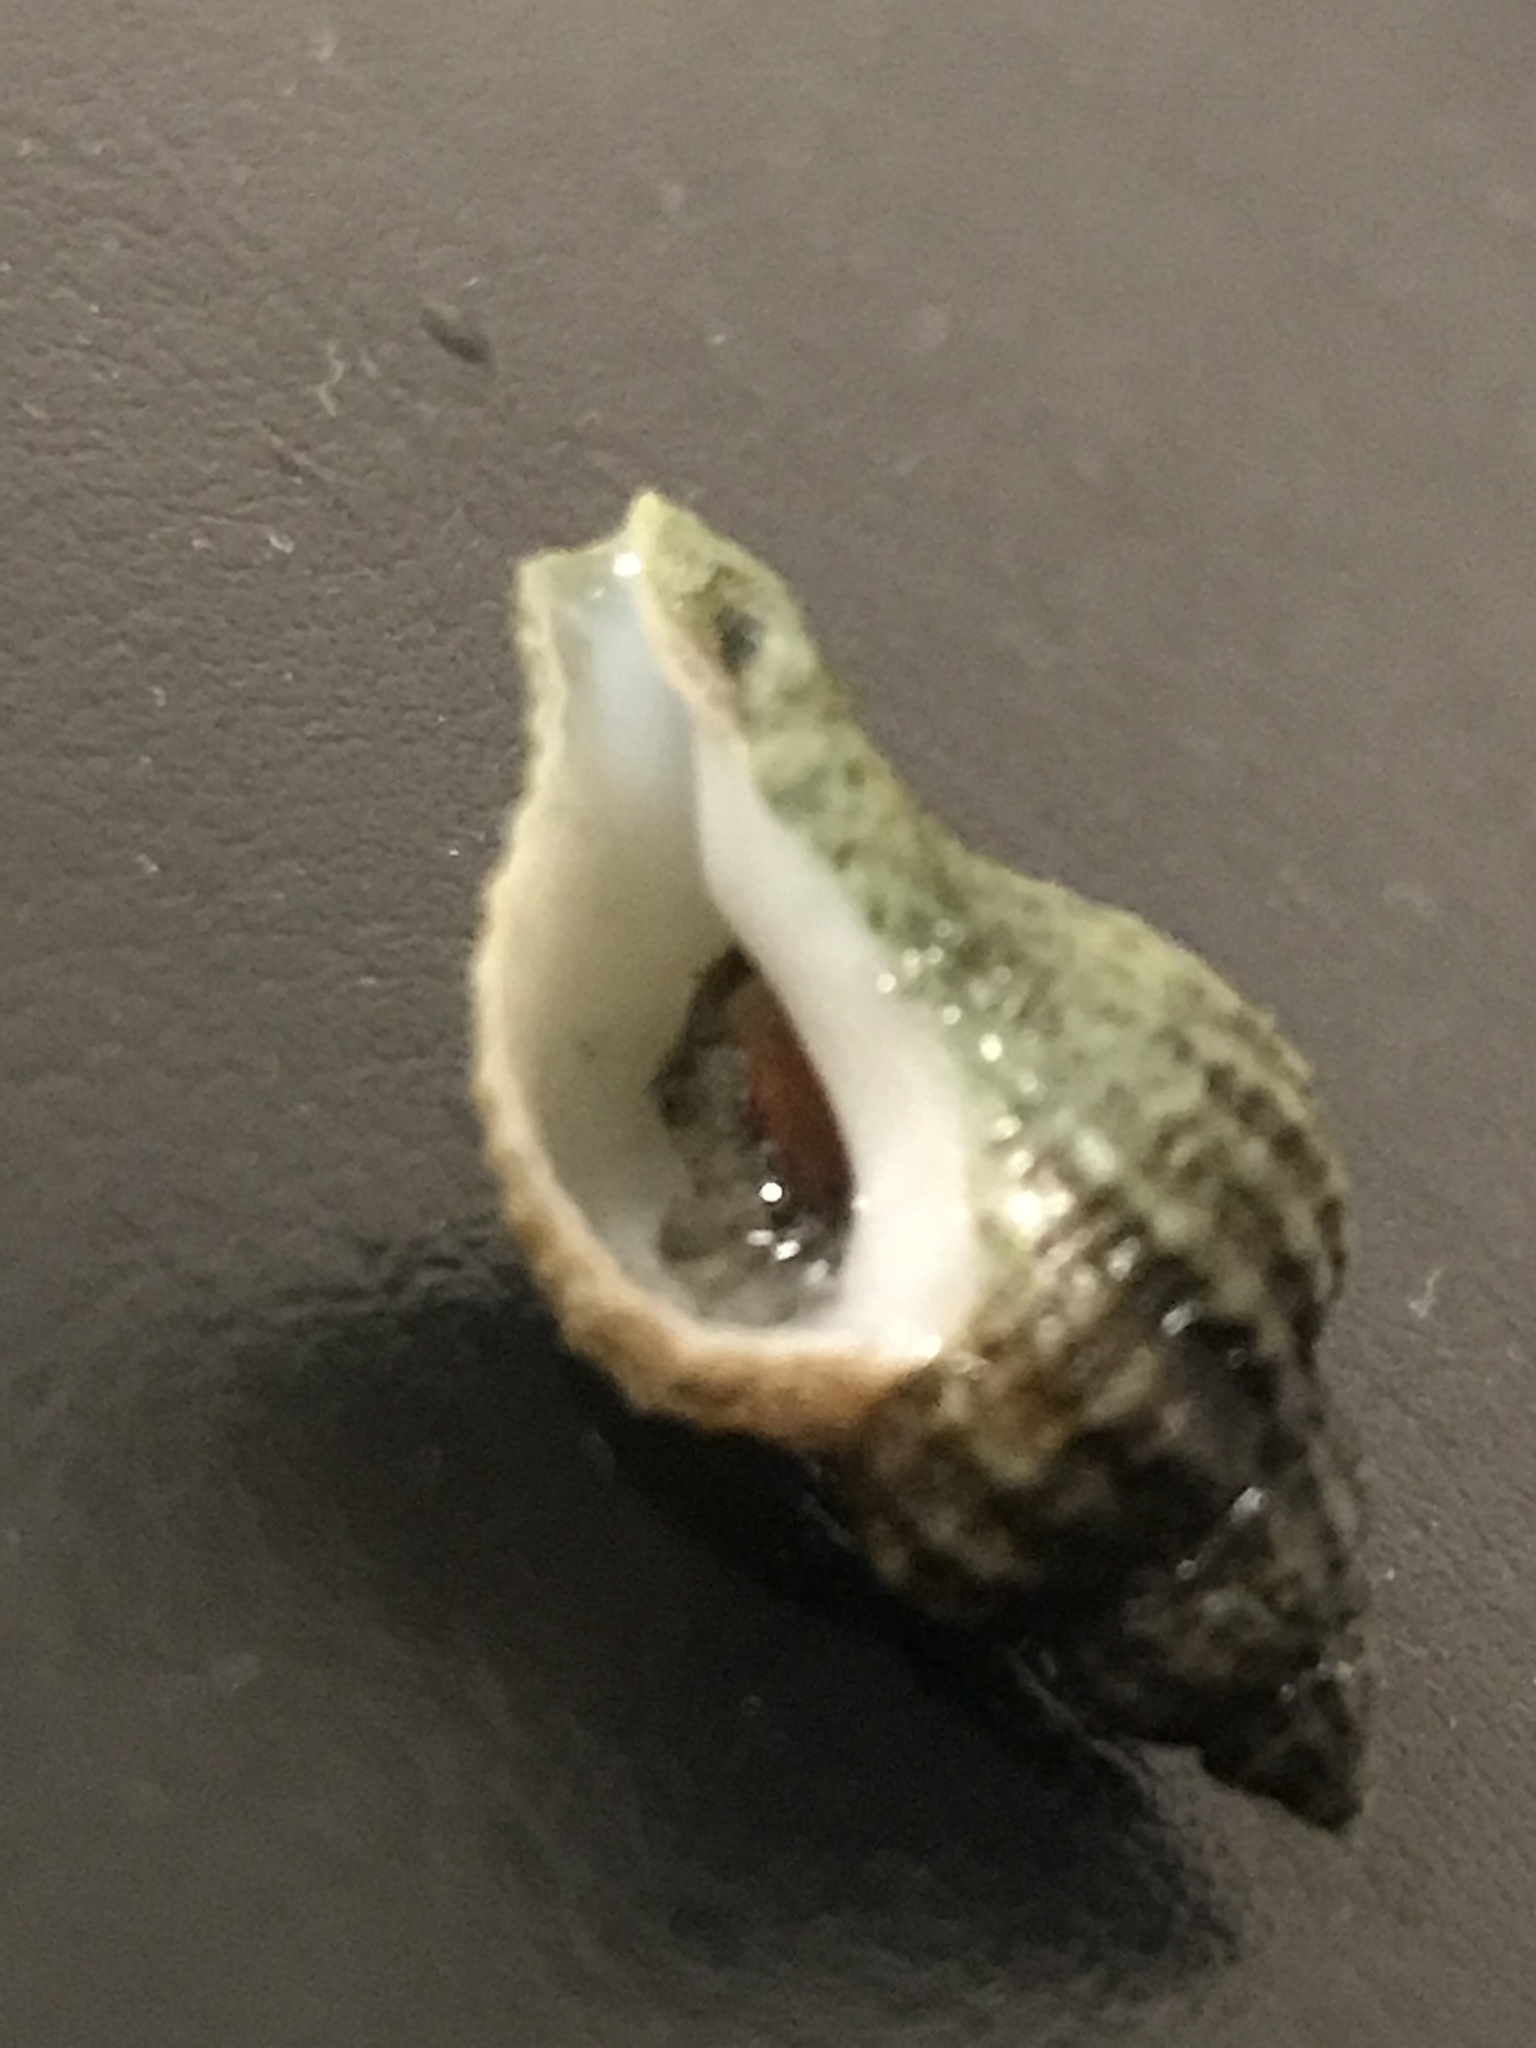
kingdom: Animalia
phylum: Mollusca
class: Gastropoda
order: Neogastropoda
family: Muricidae
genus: Urosalpinx
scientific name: Urosalpinx cinerea
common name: American sting winkle
